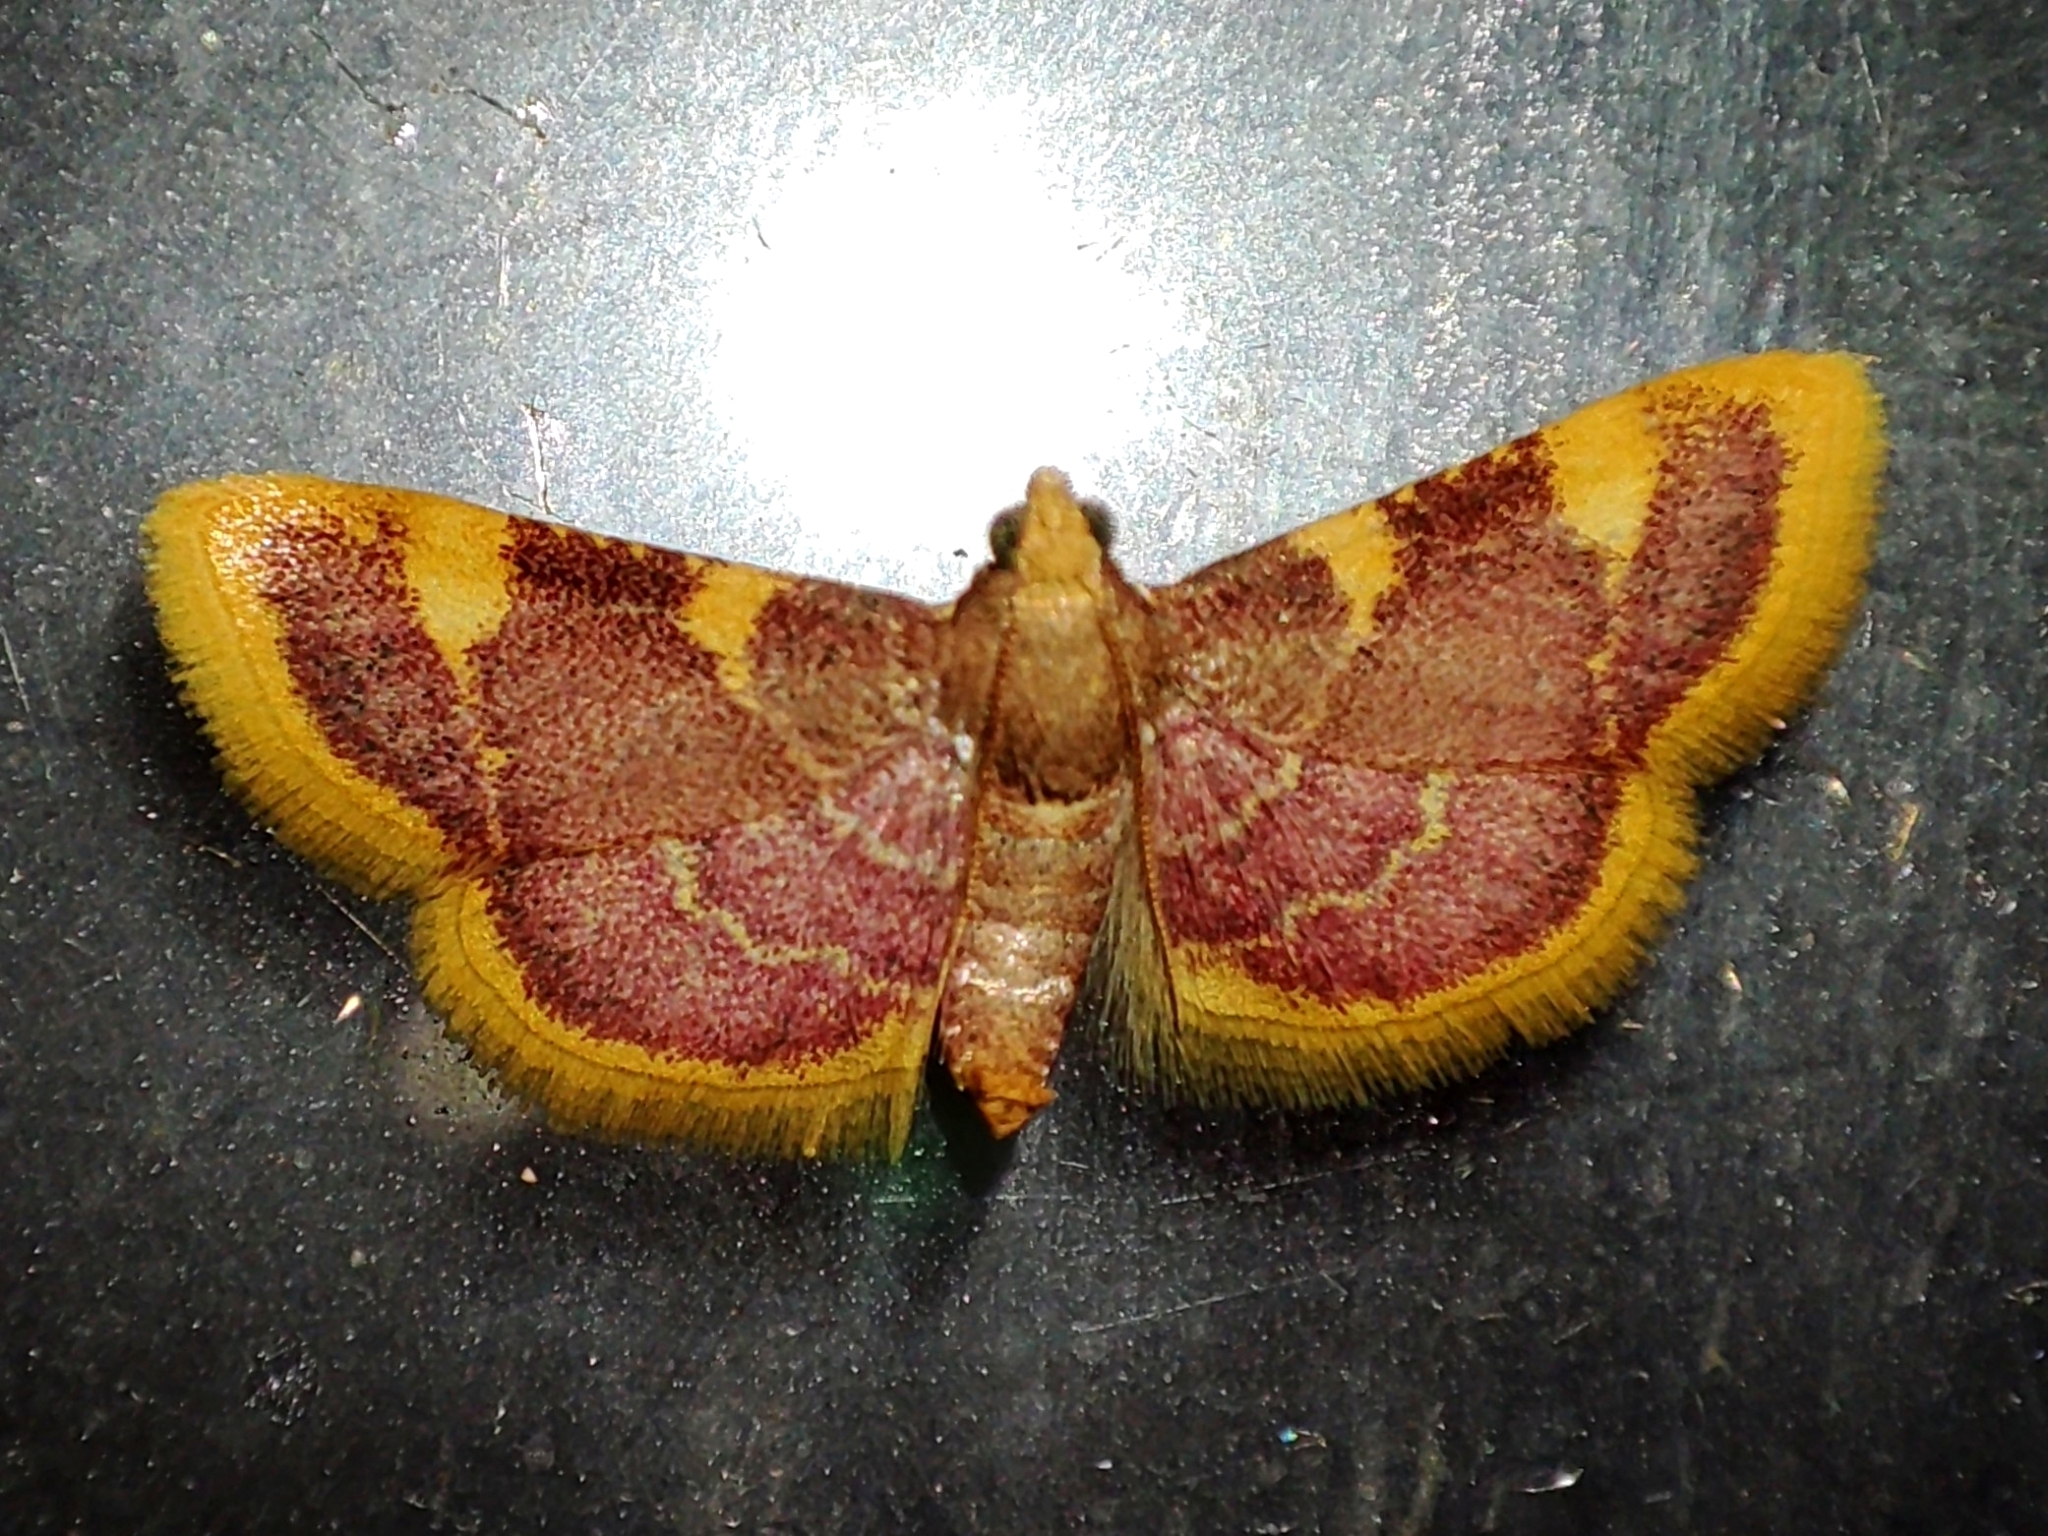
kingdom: Animalia
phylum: Arthropoda
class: Insecta
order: Lepidoptera
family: Pyralidae
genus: Hypsopygia
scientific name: Hypsopygia costalis
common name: Gold triangle
